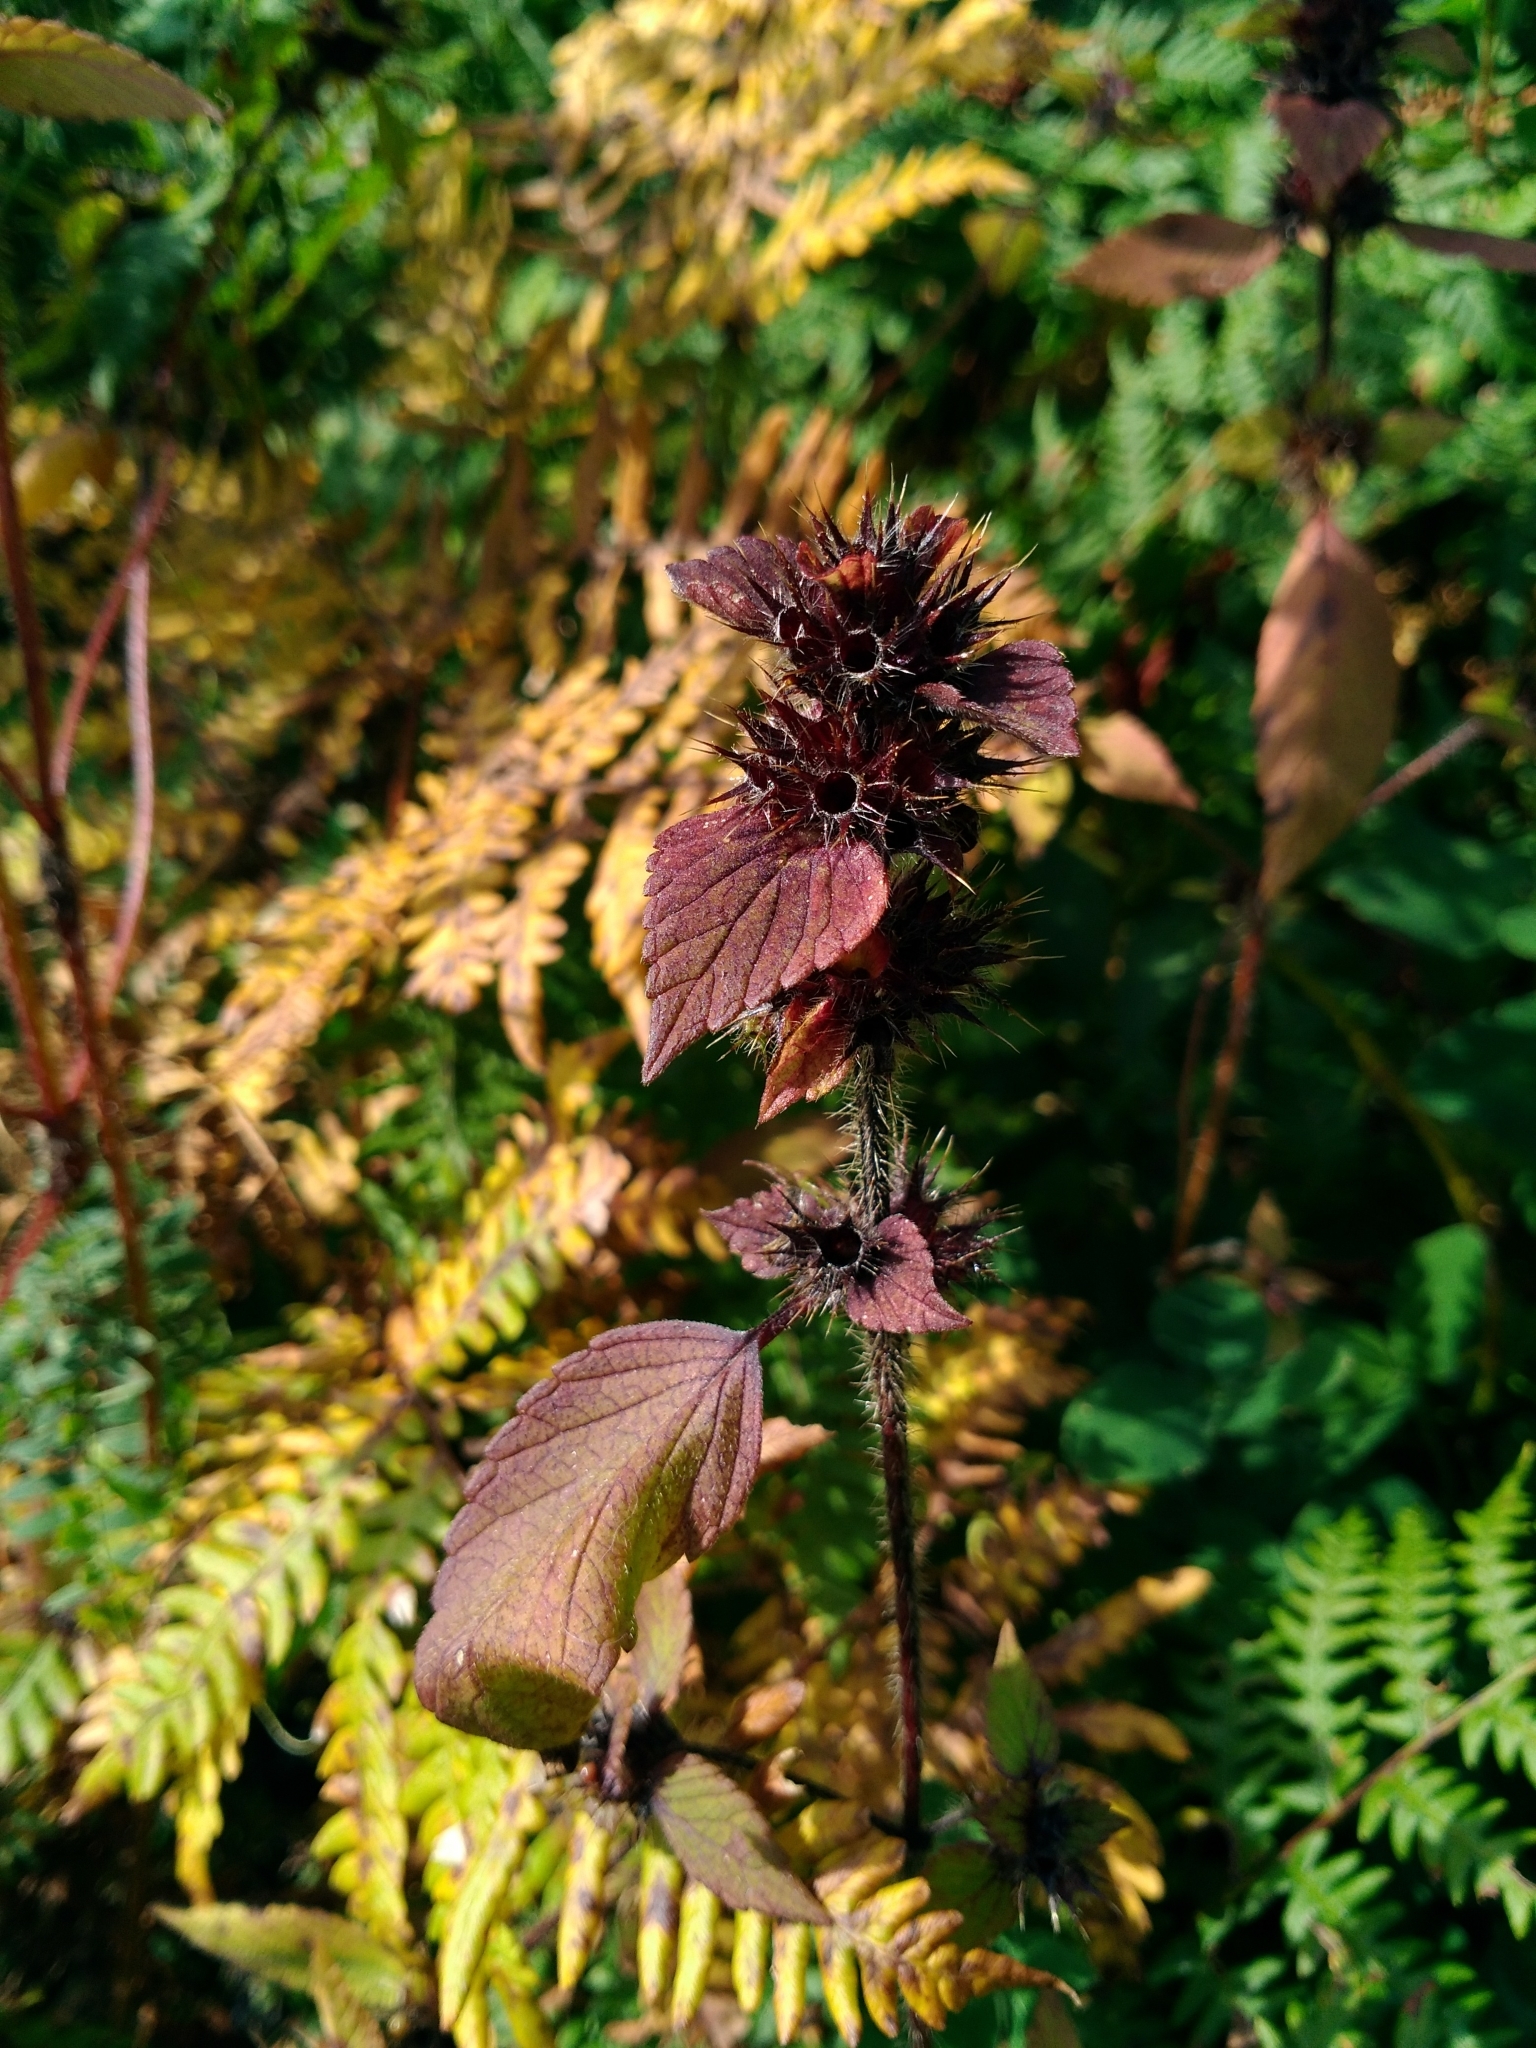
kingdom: Plantae
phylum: Tracheophyta
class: Magnoliopsida
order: Lamiales
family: Lamiaceae
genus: Galeopsis
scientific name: Galeopsis tetrahit
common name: Common hemp-nettle
